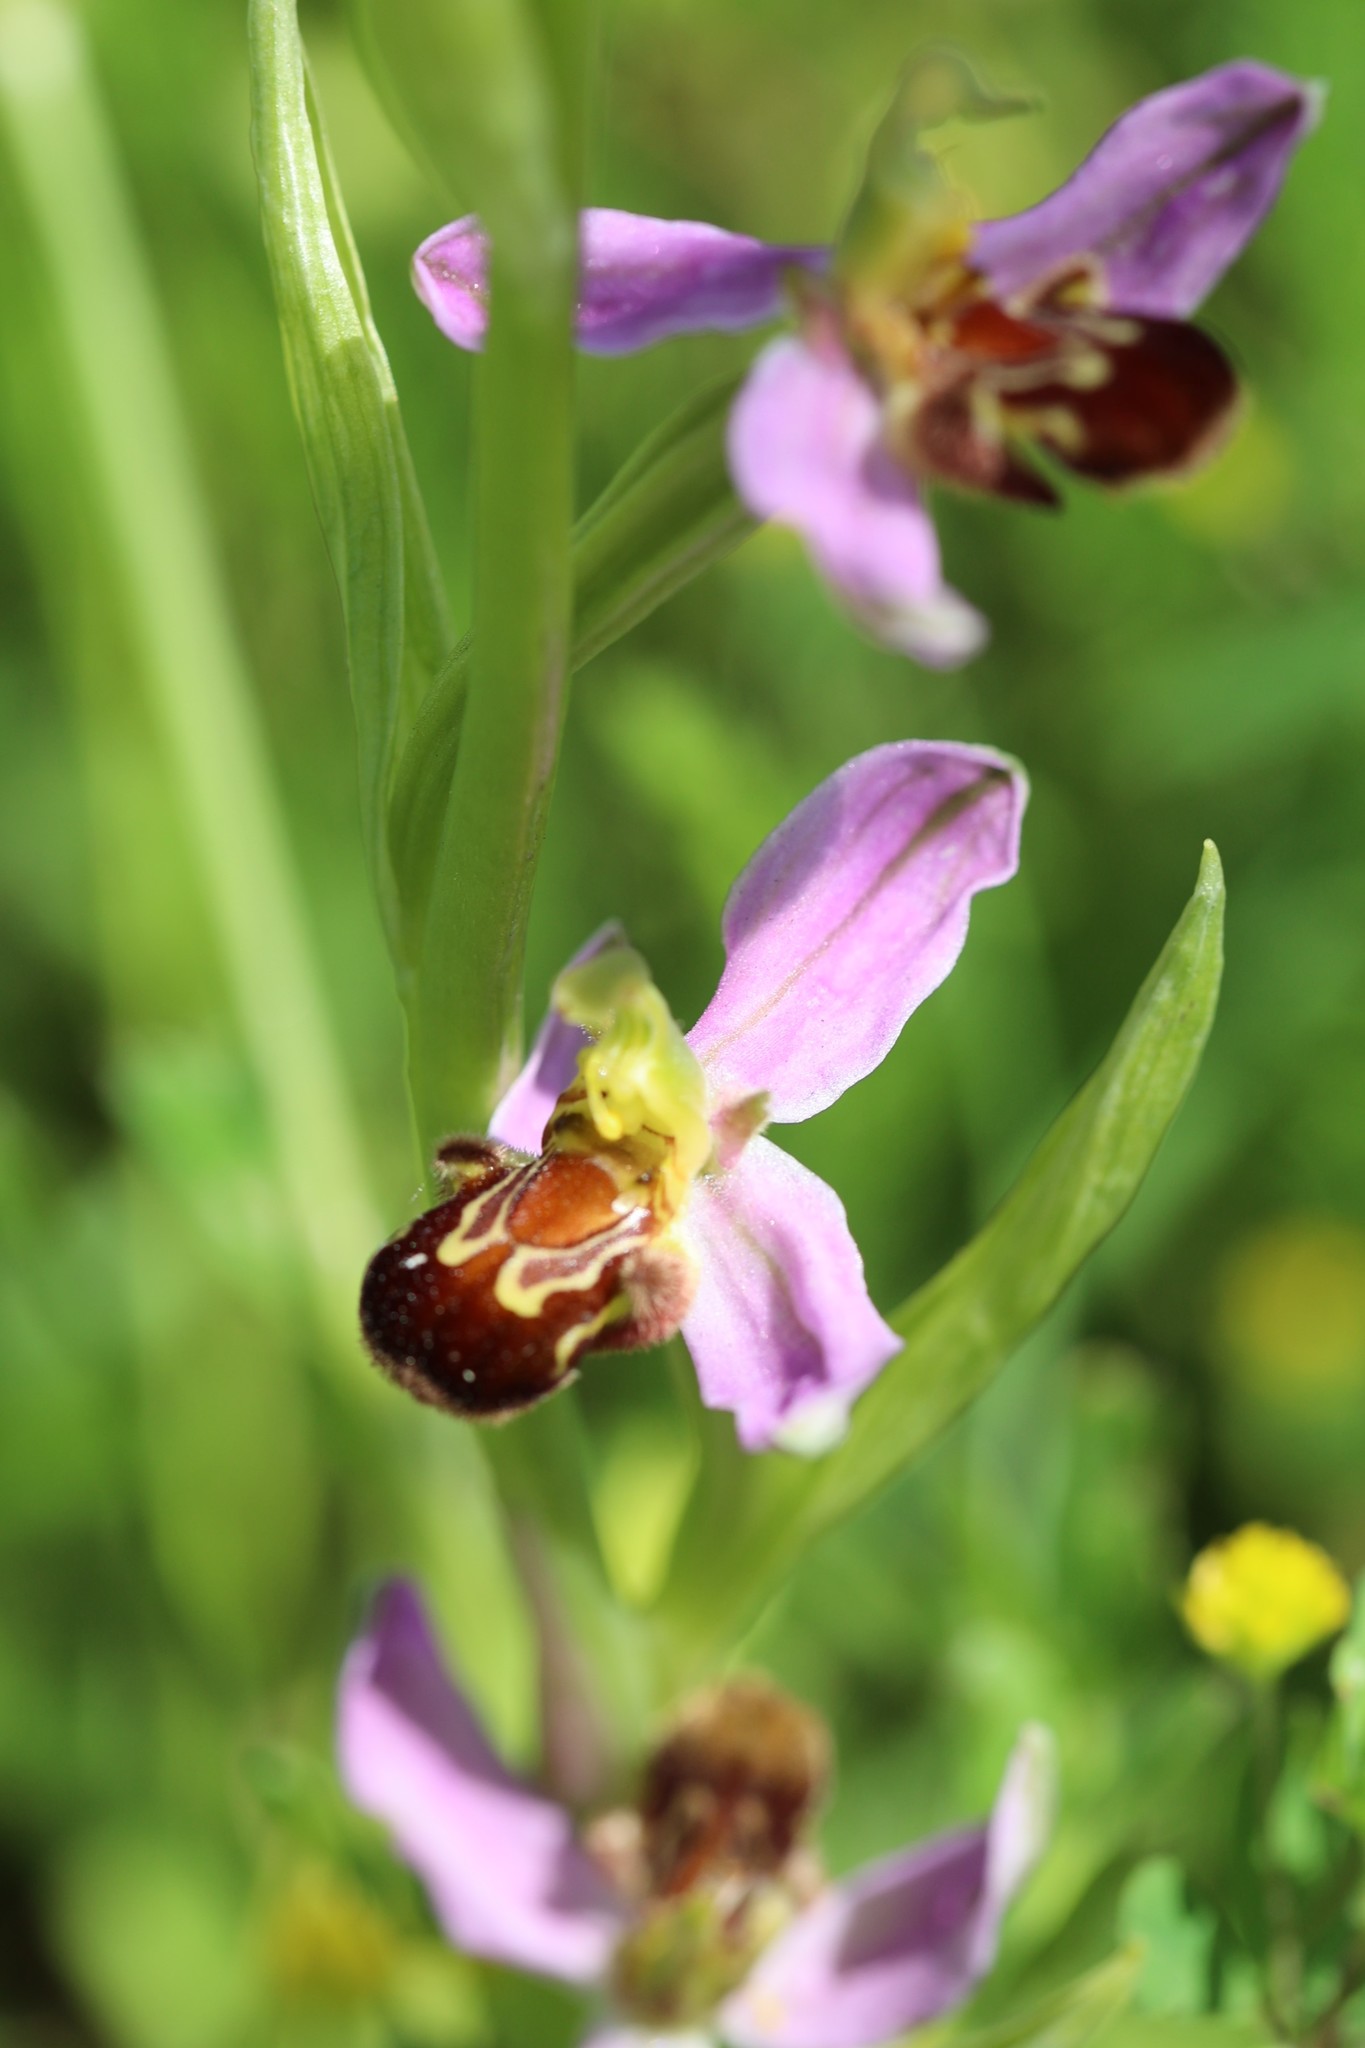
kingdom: Plantae
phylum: Tracheophyta
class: Liliopsida
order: Asparagales
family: Orchidaceae
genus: Ophrys
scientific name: Ophrys apifera
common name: Bee orchid
